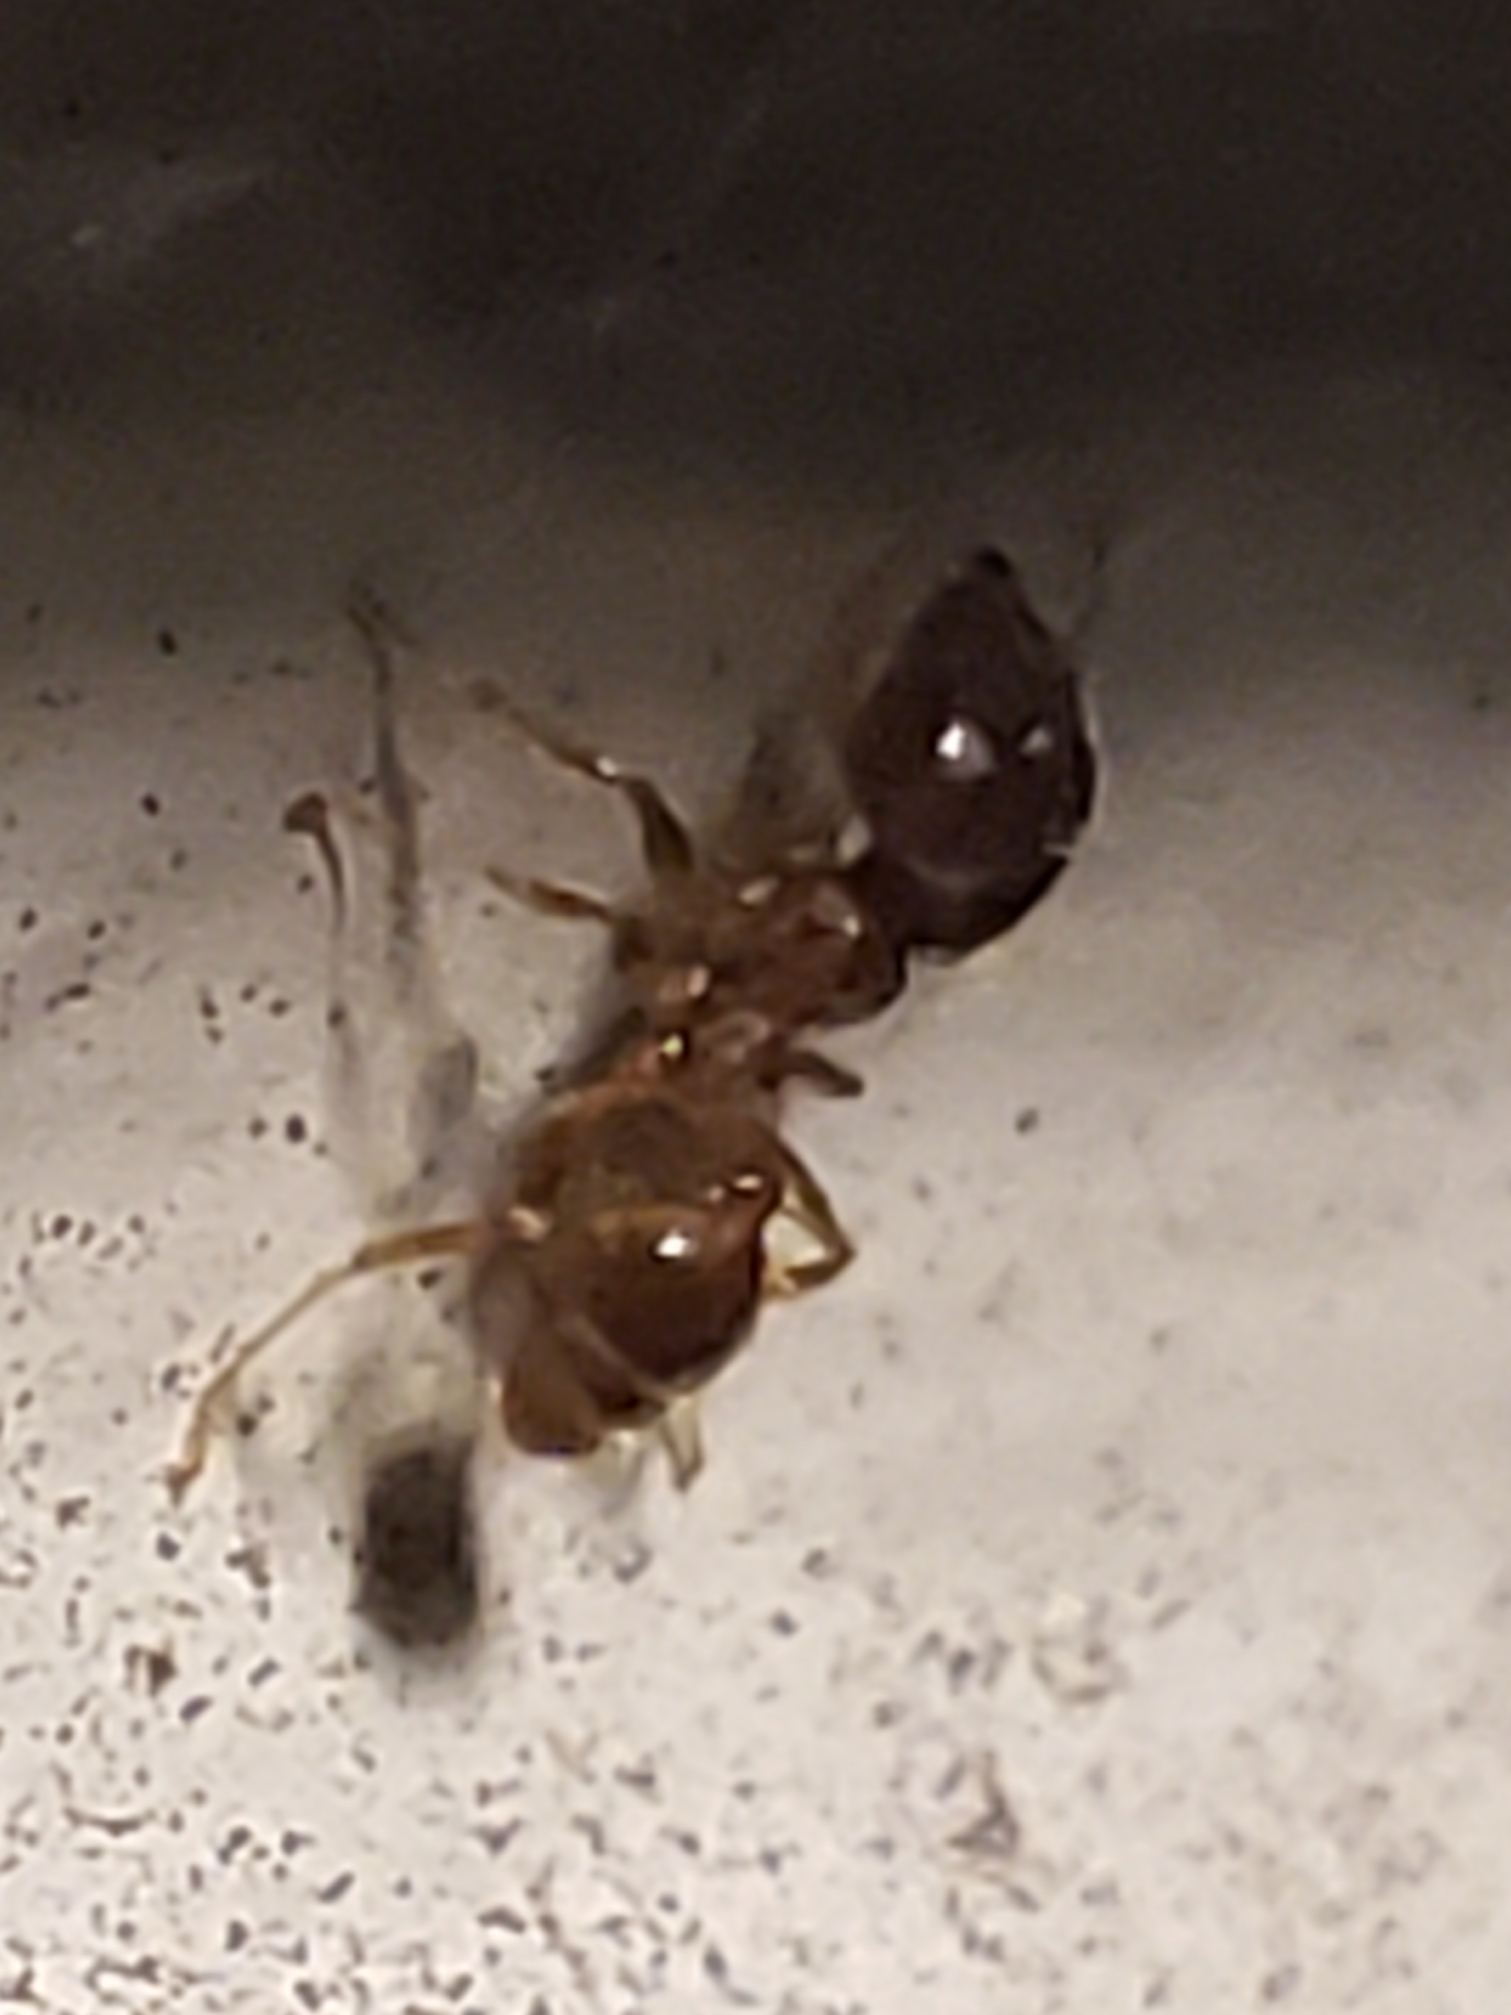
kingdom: Animalia
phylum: Arthropoda
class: Insecta
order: Hymenoptera
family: Formicidae
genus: Pheidole
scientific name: Pheidole megacephala
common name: Bigheaded ant
